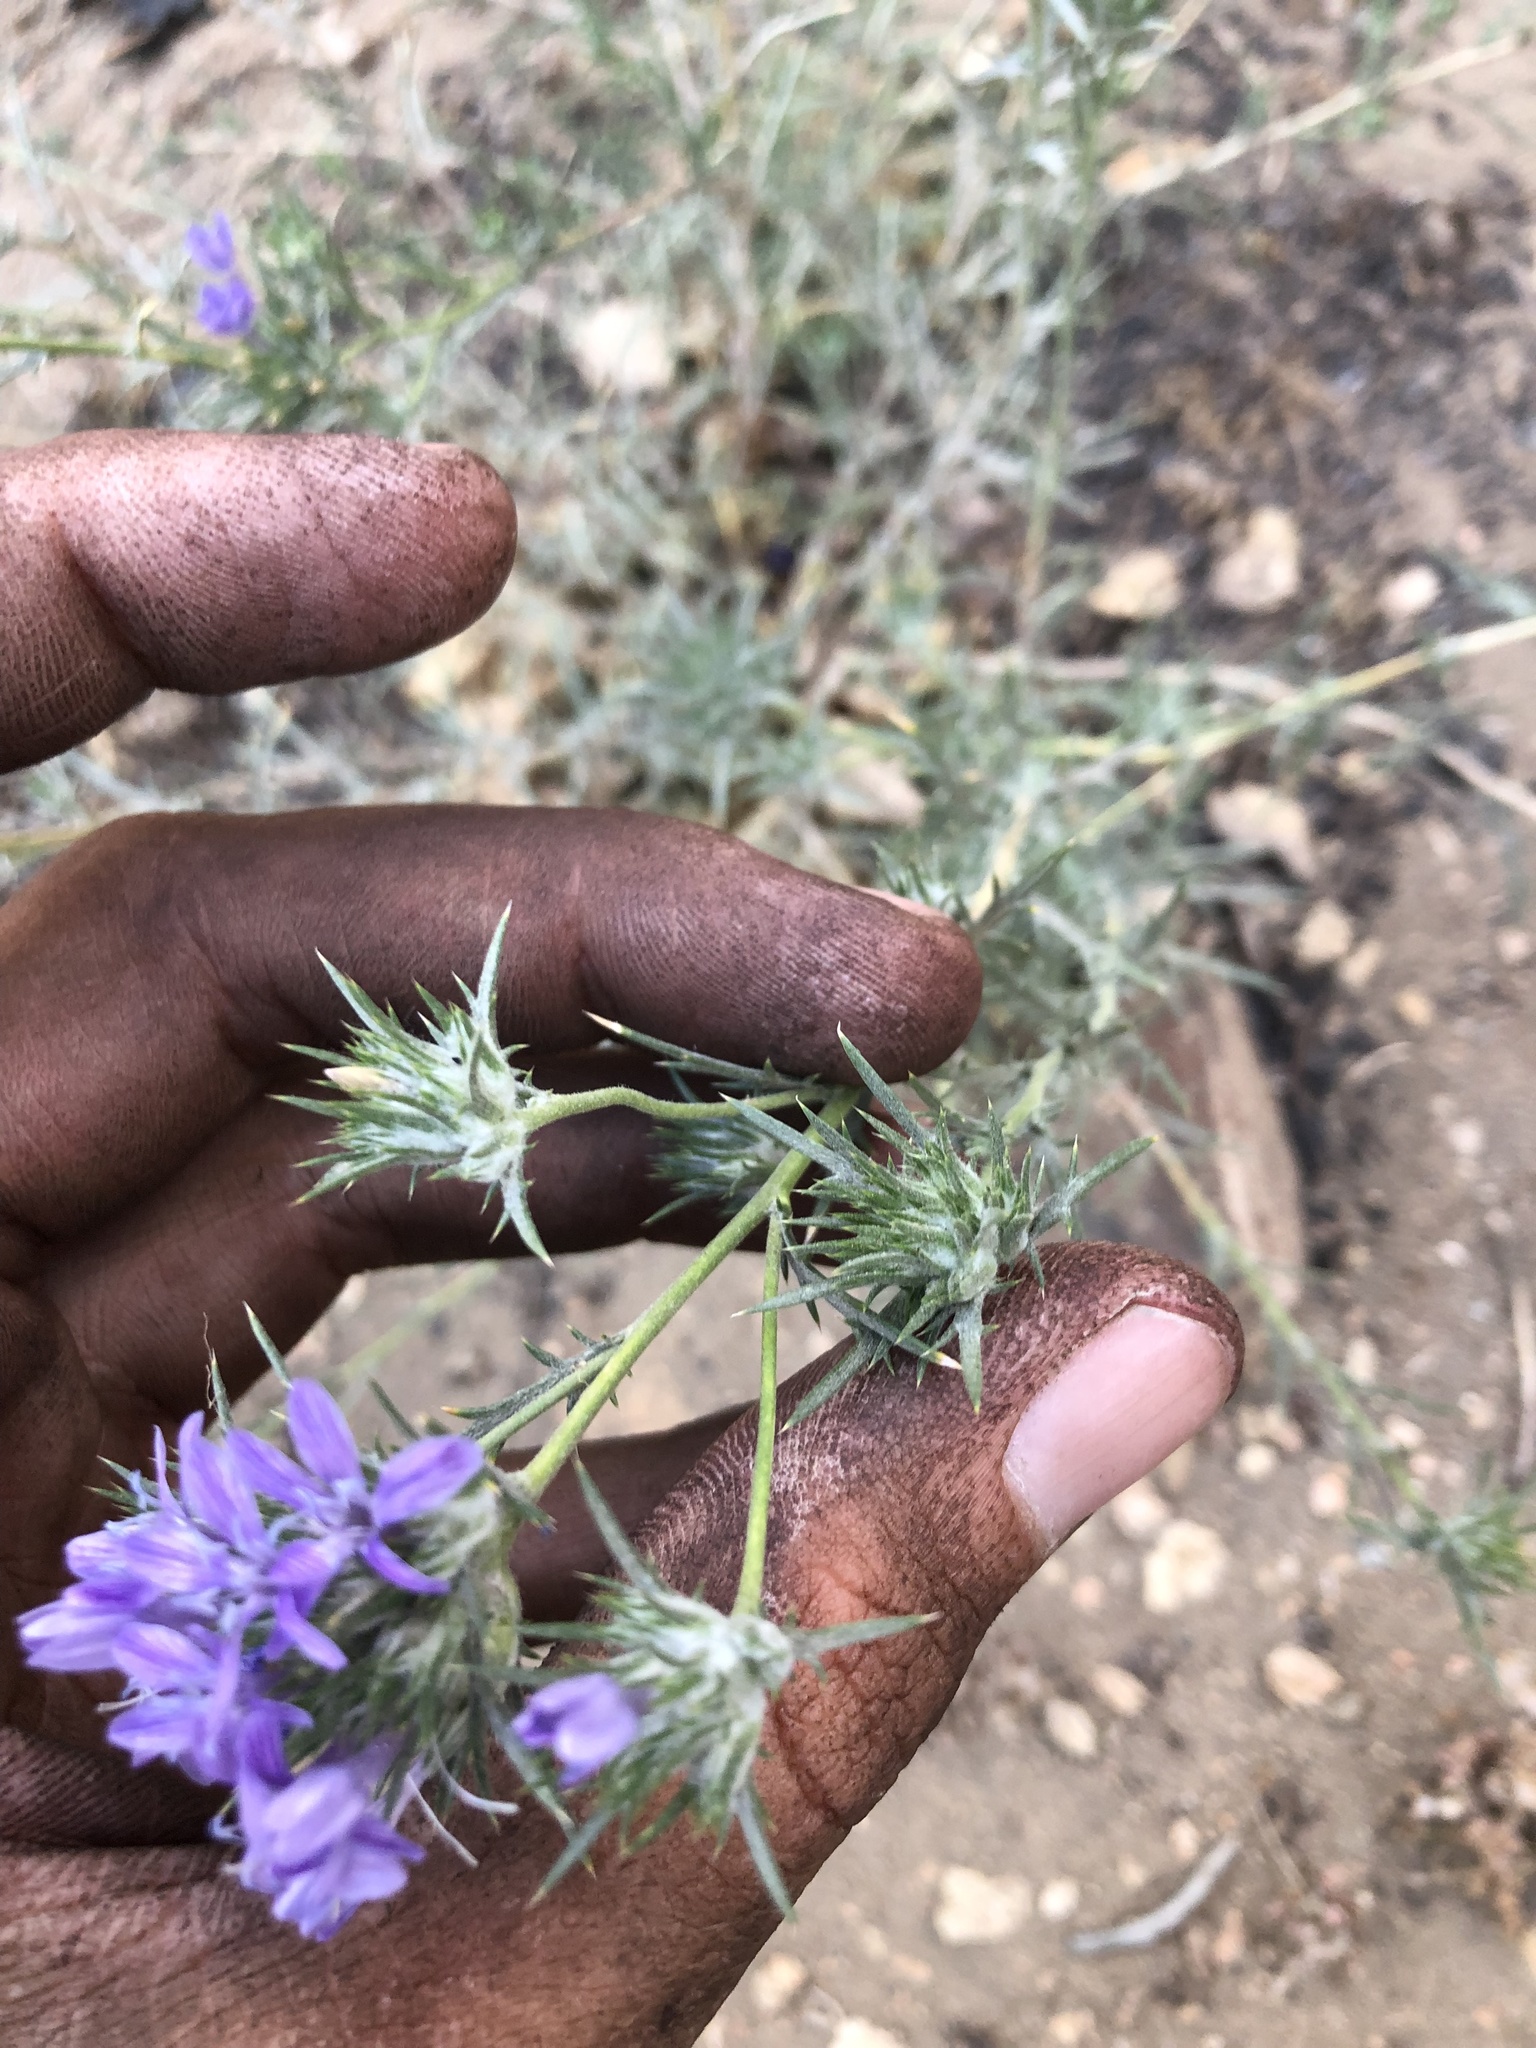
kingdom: Plantae
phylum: Tracheophyta
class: Magnoliopsida
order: Ericales
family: Polemoniaceae
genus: Eriastrum
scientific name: Eriastrum densifolium
